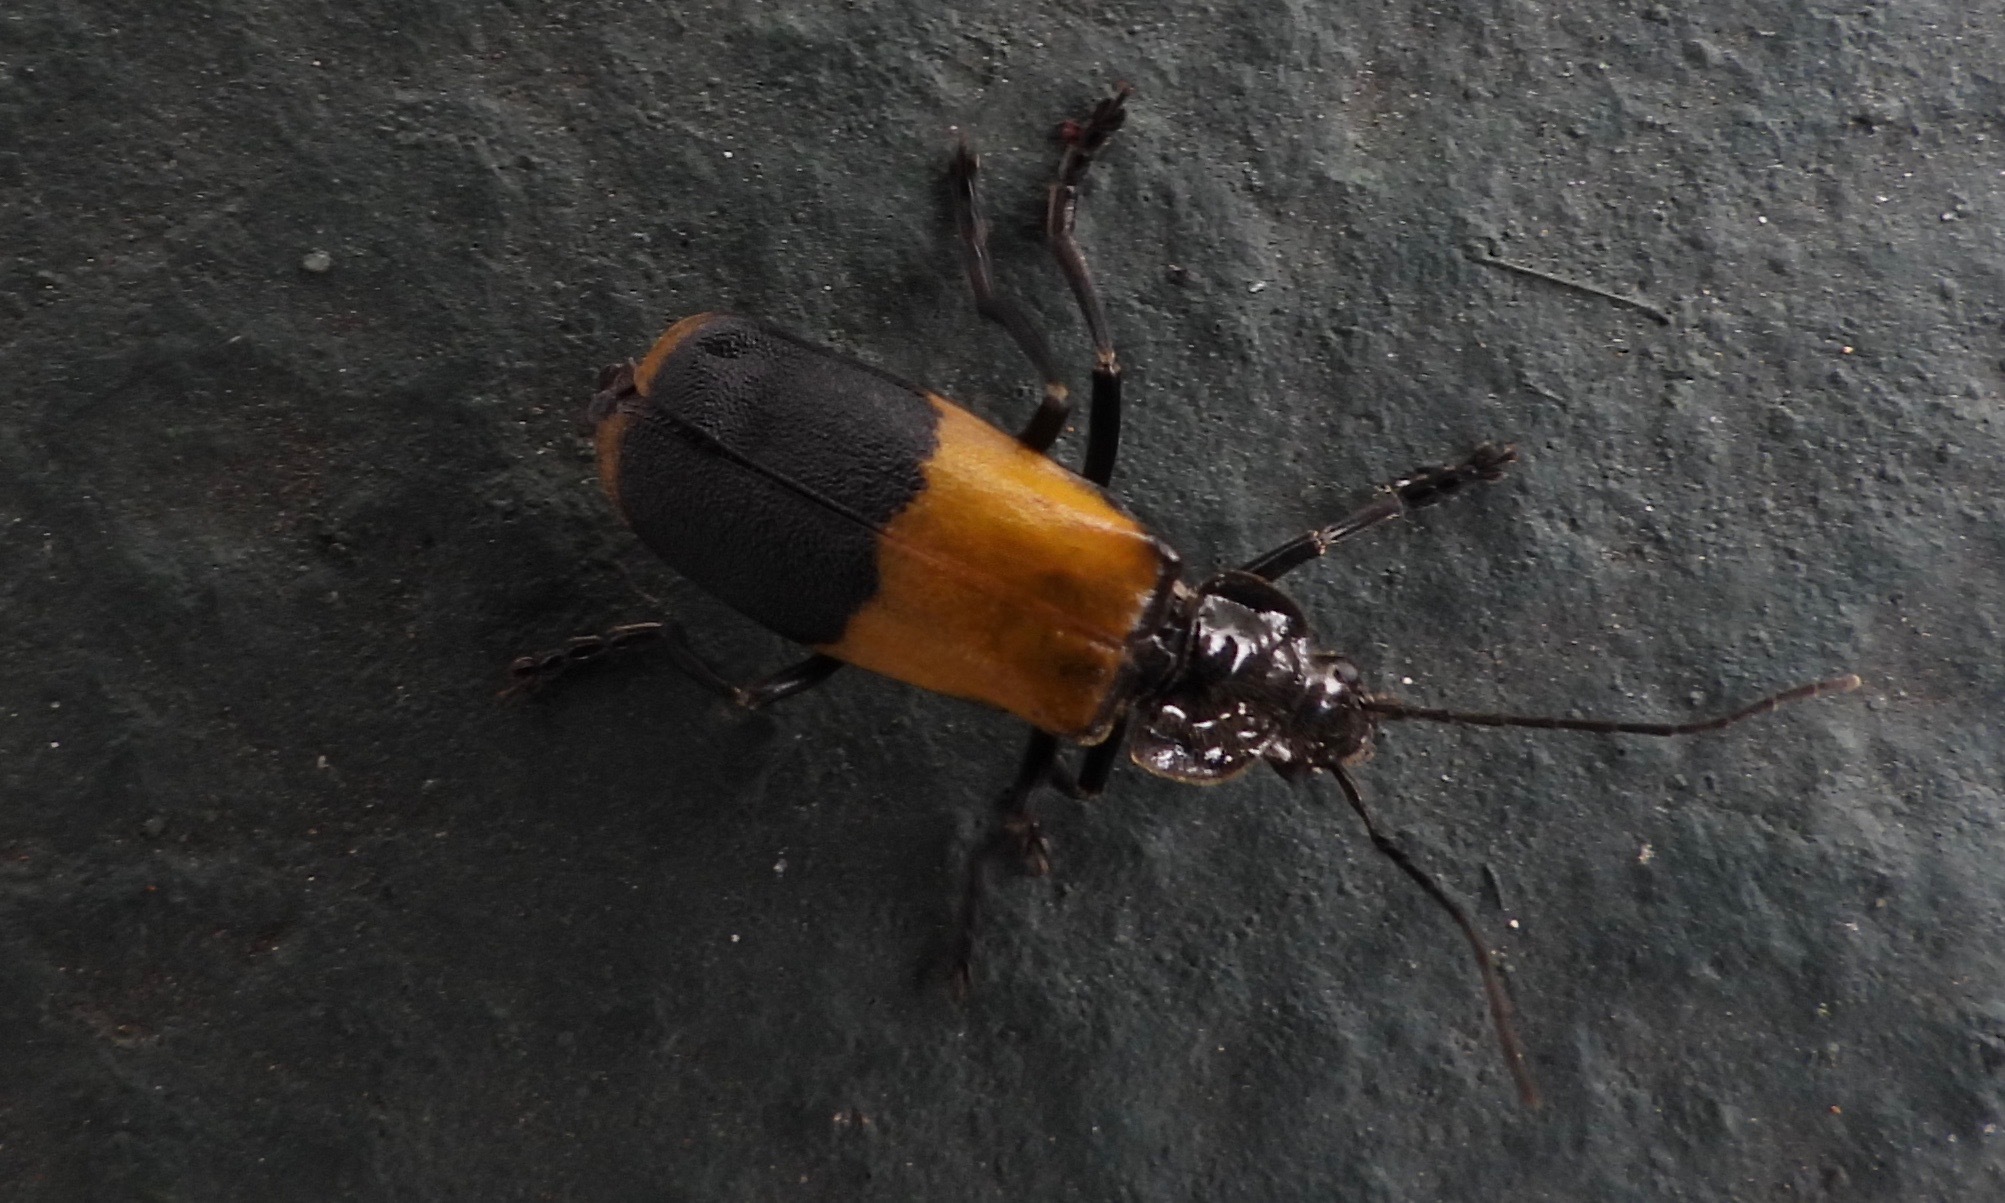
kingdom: Animalia
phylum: Arthropoda
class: Insecta
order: Coleoptera
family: Cantharidae
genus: Chauliognathus
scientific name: Chauliognathus
